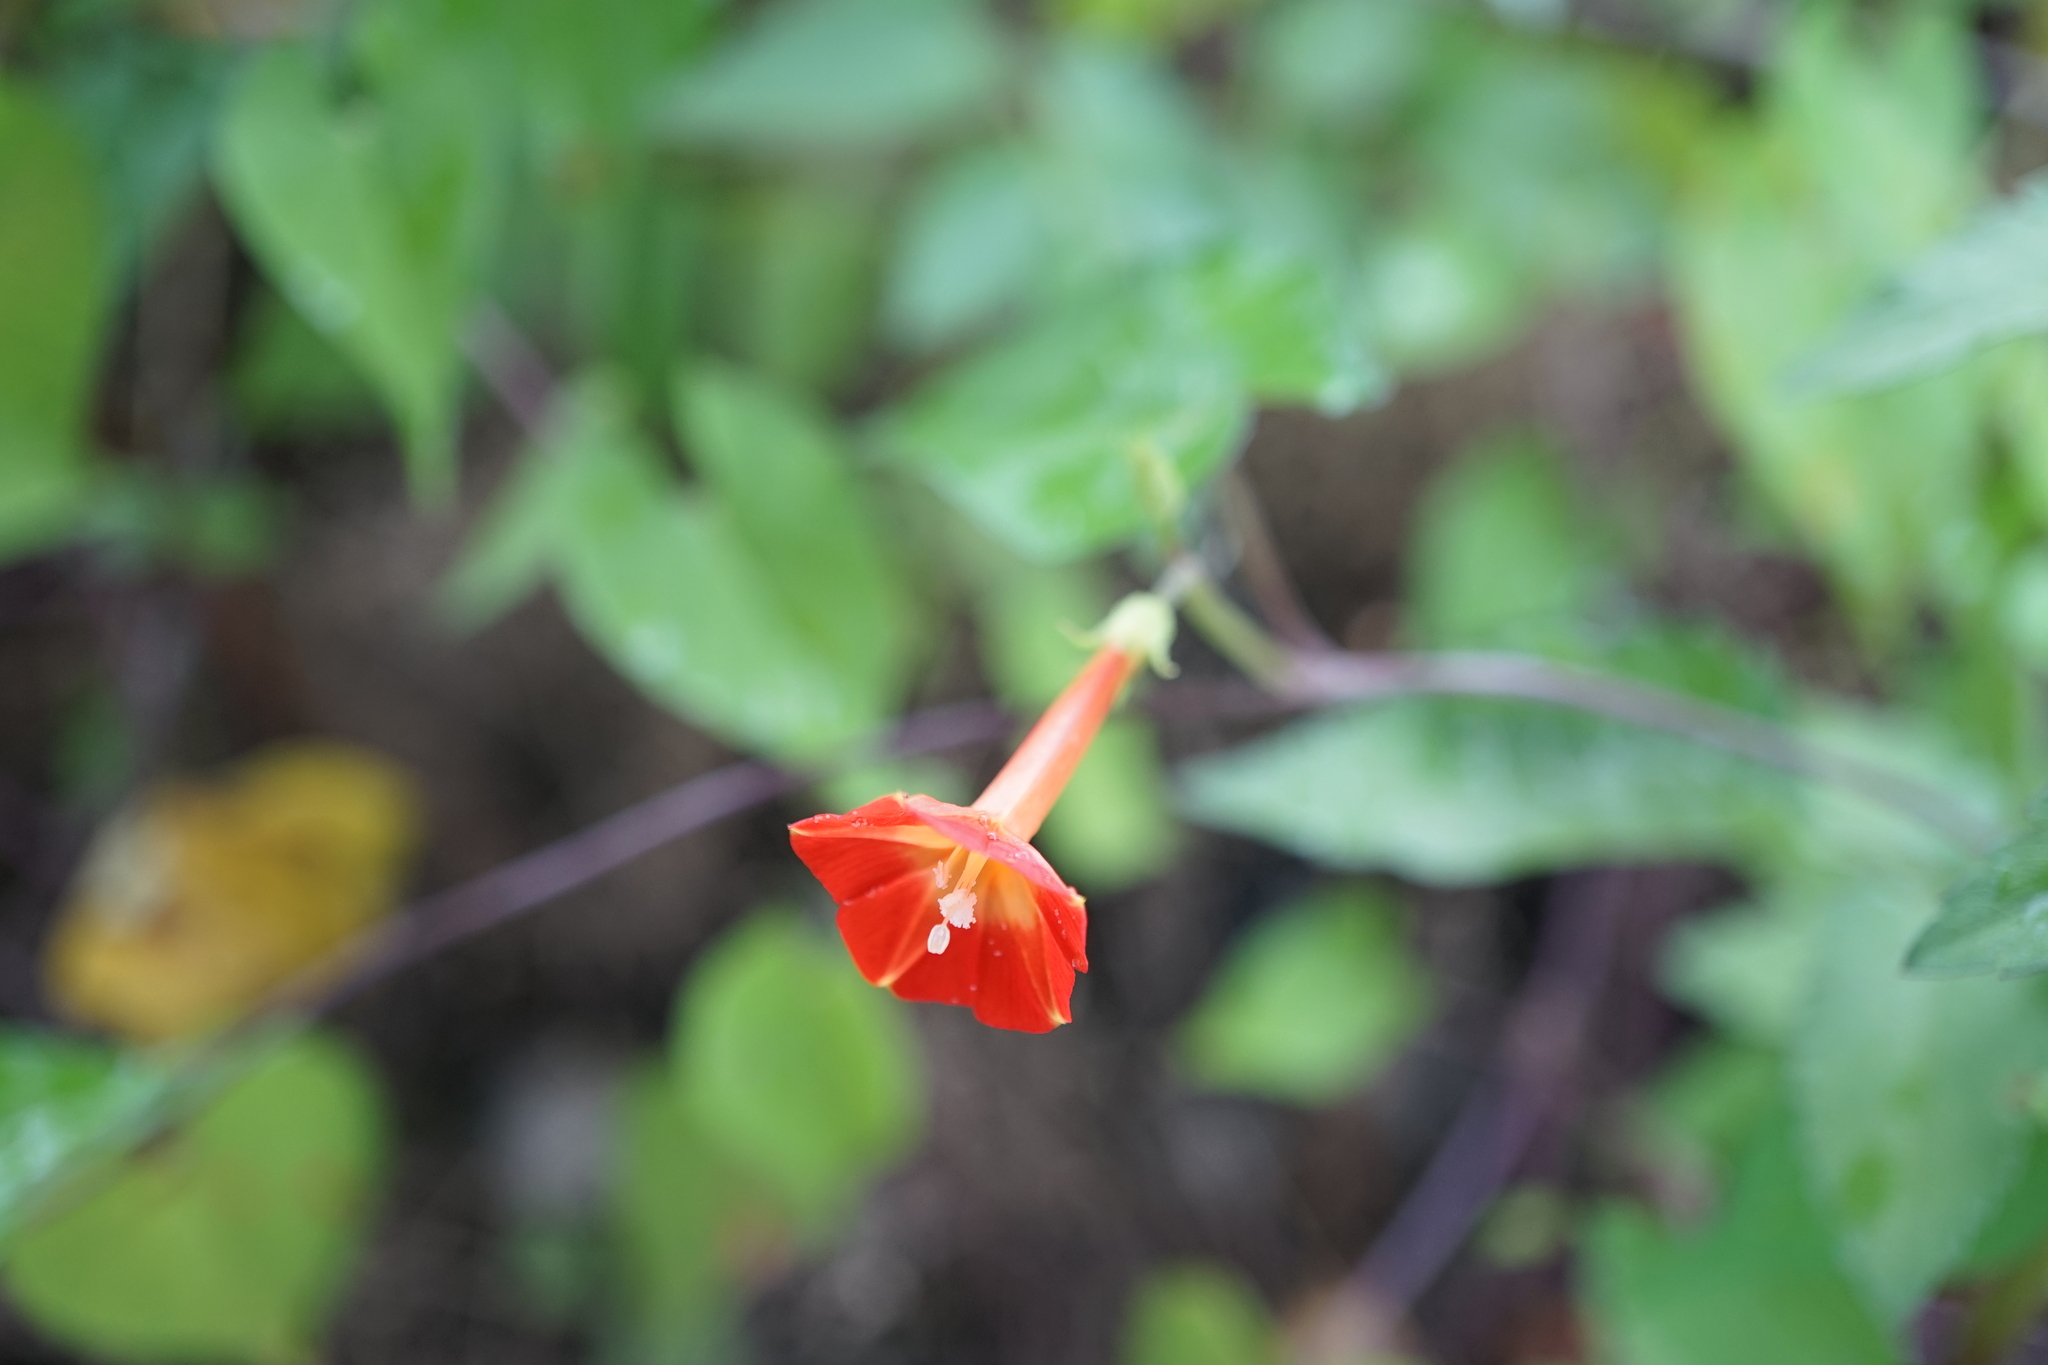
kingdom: Plantae
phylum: Tracheophyta
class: Magnoliopsida
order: Solanales
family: Convolvulaceae
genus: Ipomoea
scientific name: Ipomoea coccinea
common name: Red morning-glory
